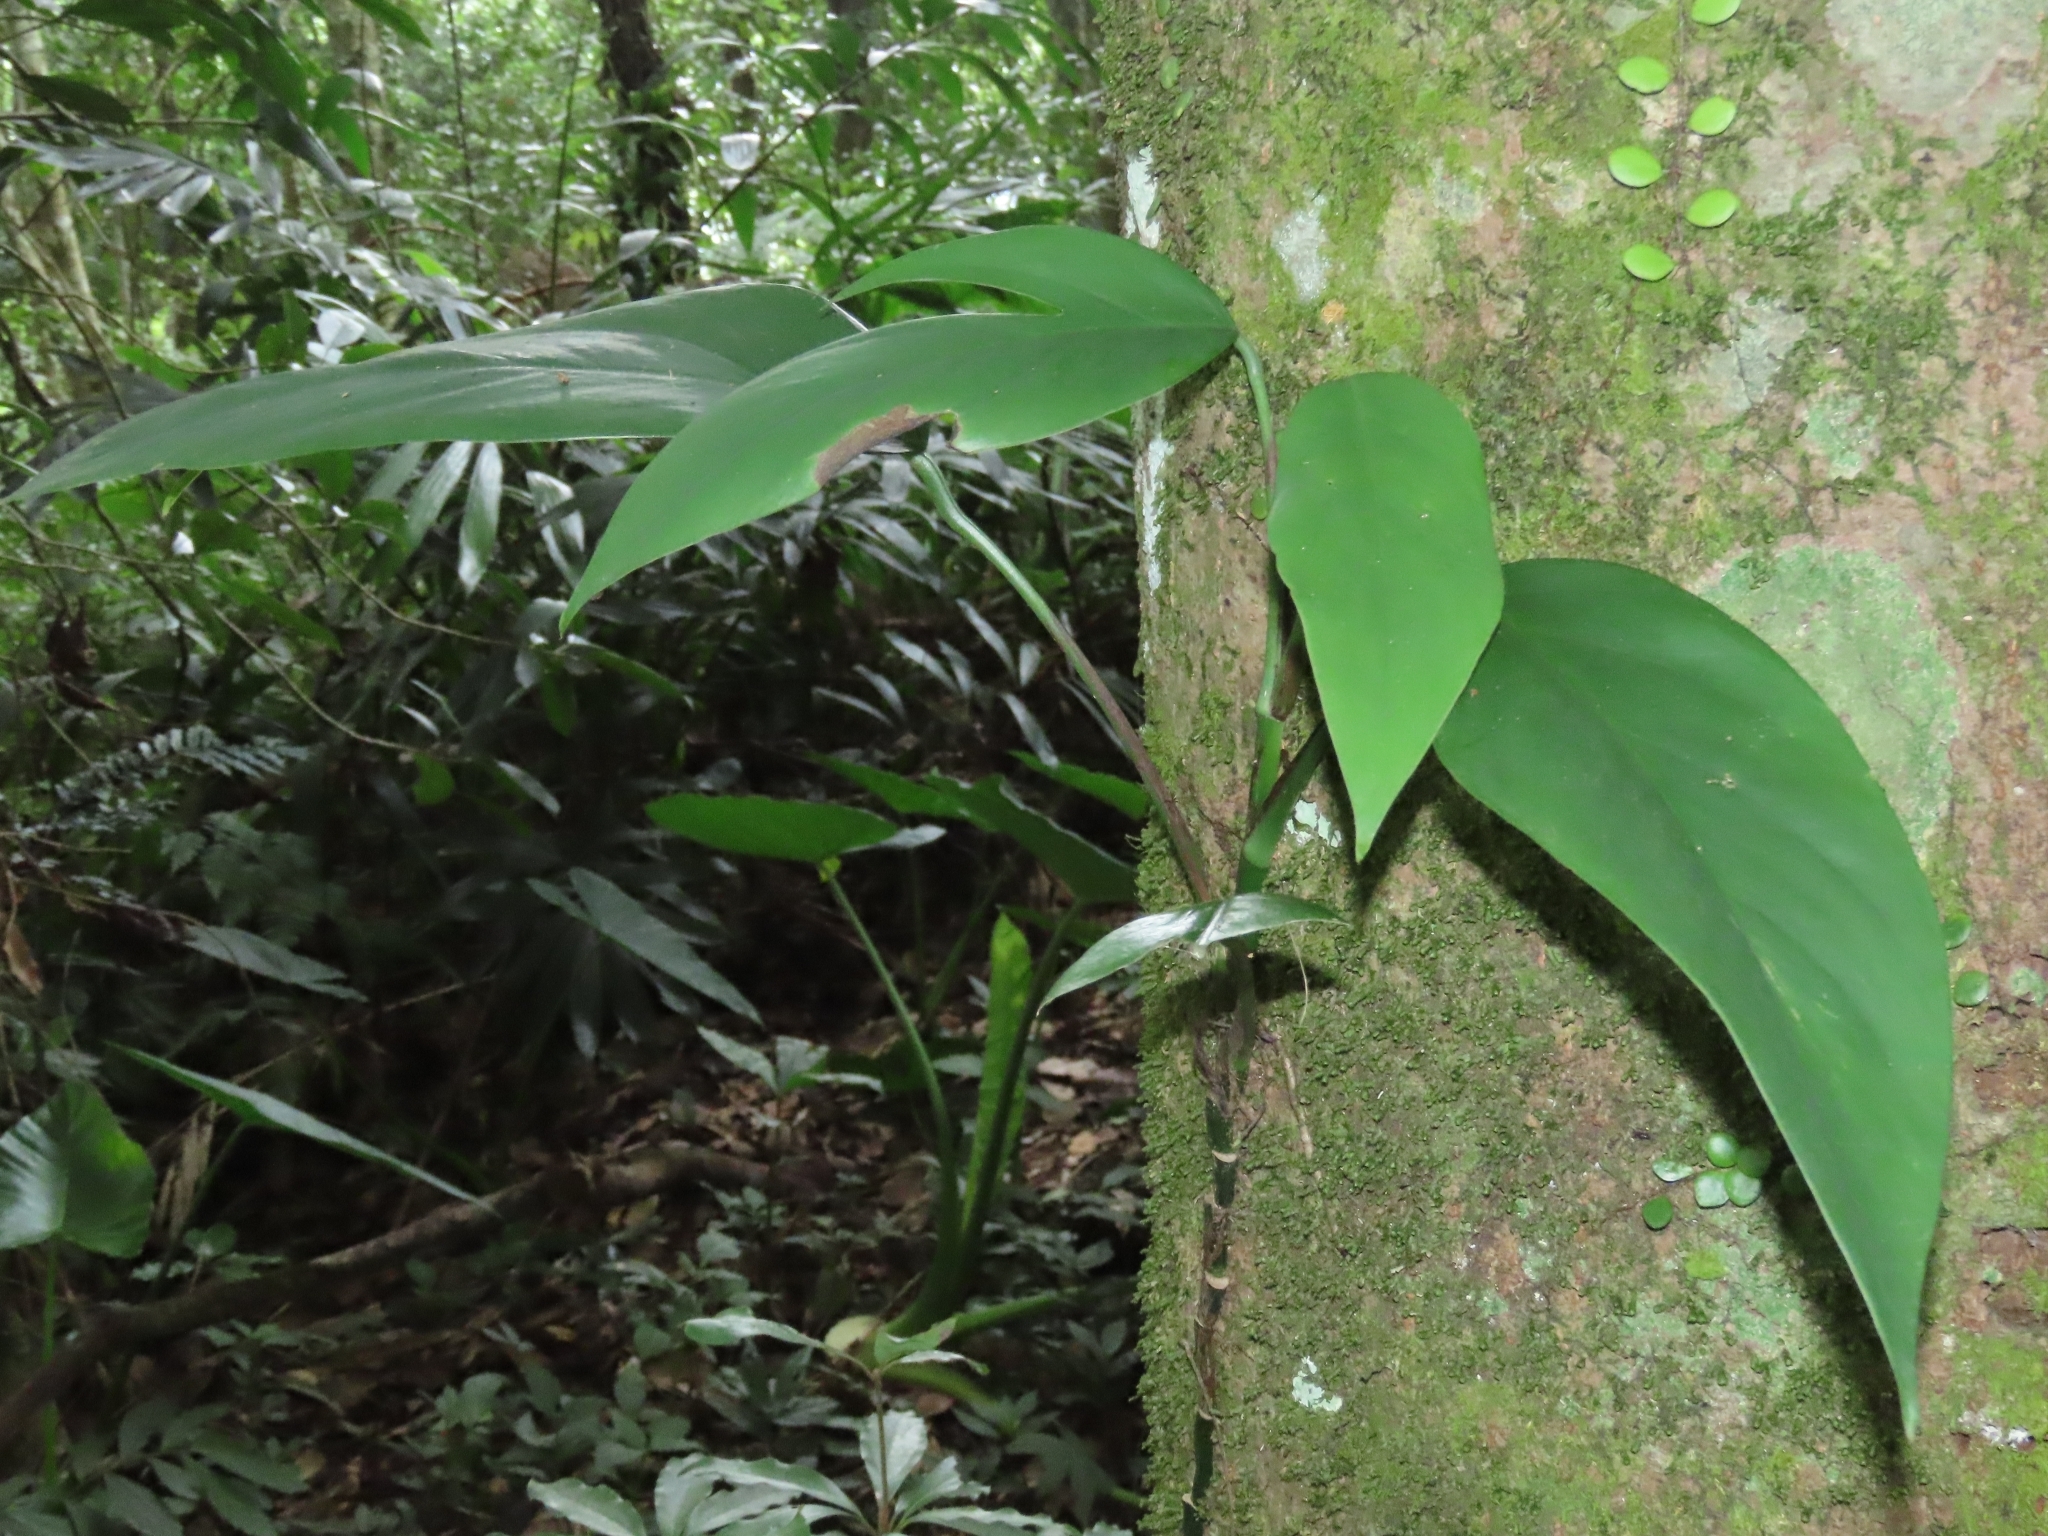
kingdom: Plantae
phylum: Tracheophyta
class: Liliopsida
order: Alismatales
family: Araceae
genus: Epipremnum
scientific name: Epipremnum pinnatum
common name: Centipede tongavine
